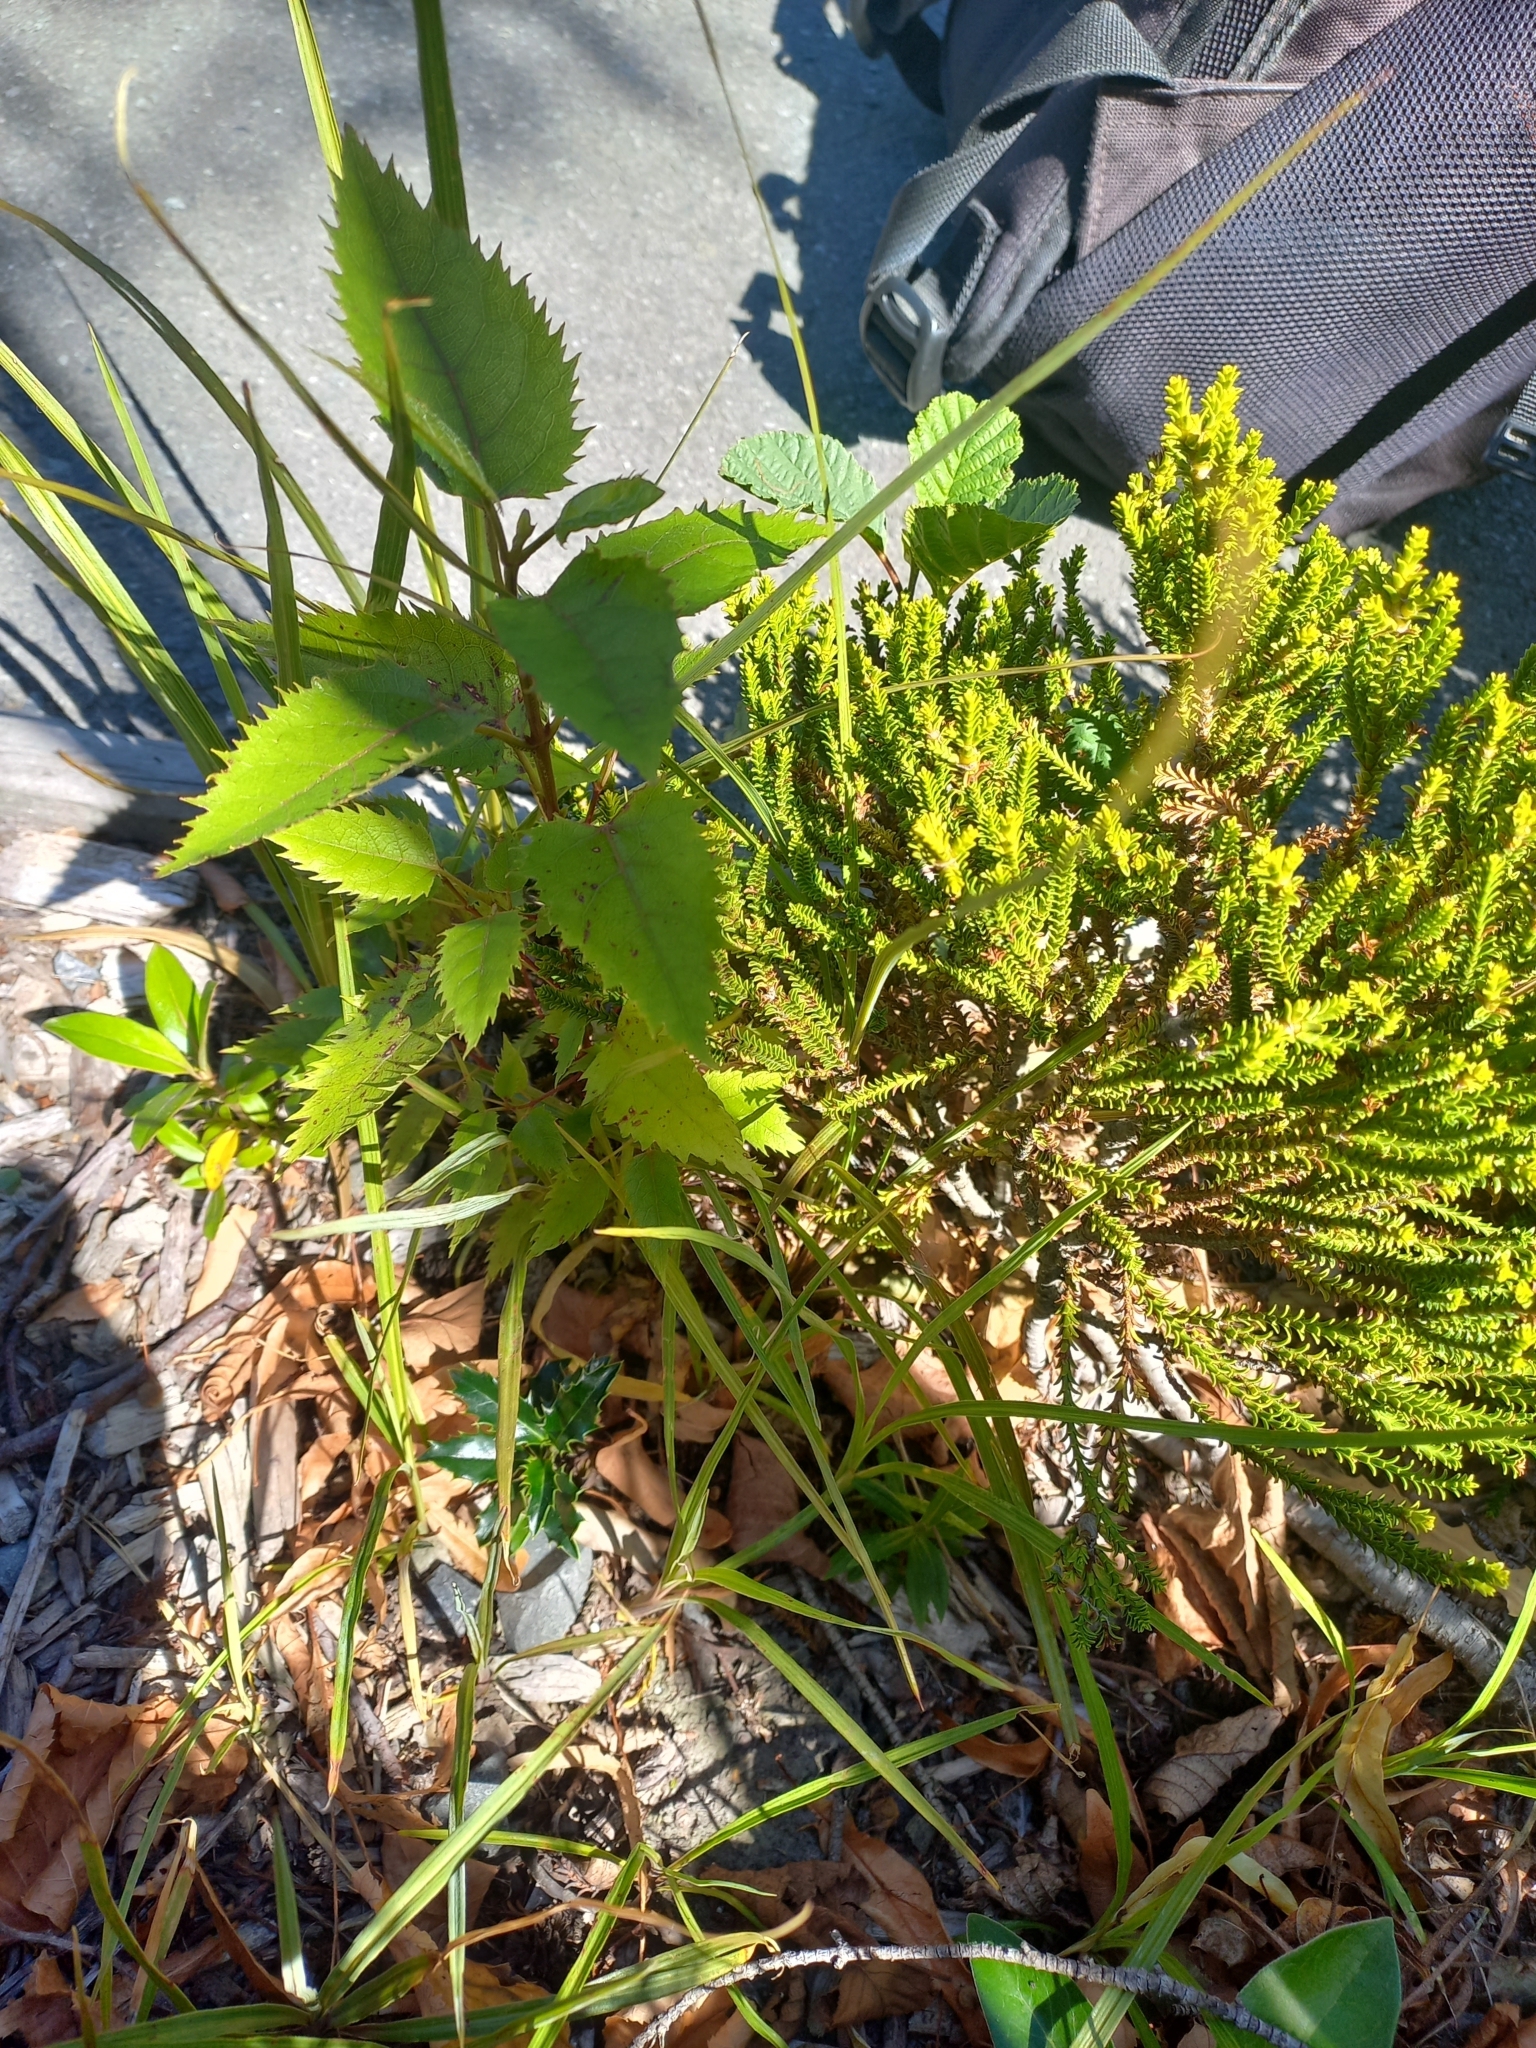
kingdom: Plantae
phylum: Tracheophyta
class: Magnoliopsida
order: Oxalidales
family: Elaeocarpaceae
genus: Aristotelia
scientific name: Aristotelia serrata
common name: New zealand wineberry
